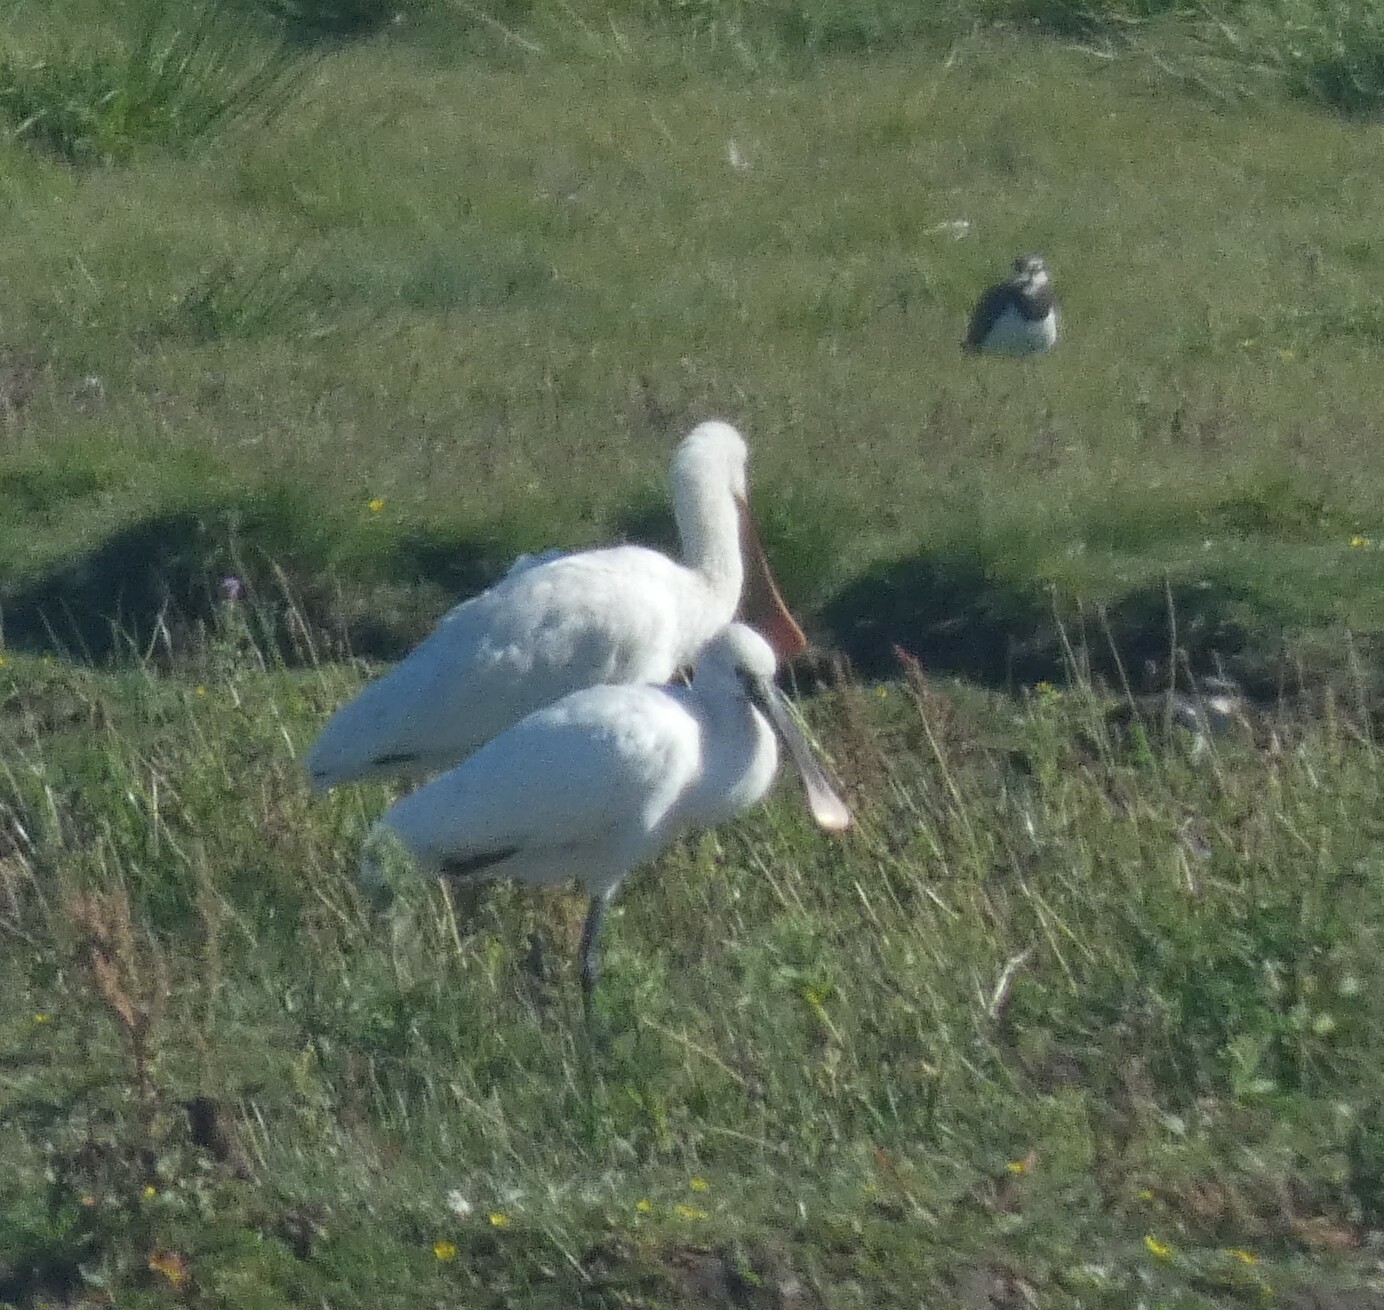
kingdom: Animalia
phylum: Chordata
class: Aves
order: Pelecaniformes
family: Threskiornithidae
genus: Platalea
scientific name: Platalea leucorodia
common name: Eurasian spoonbill
